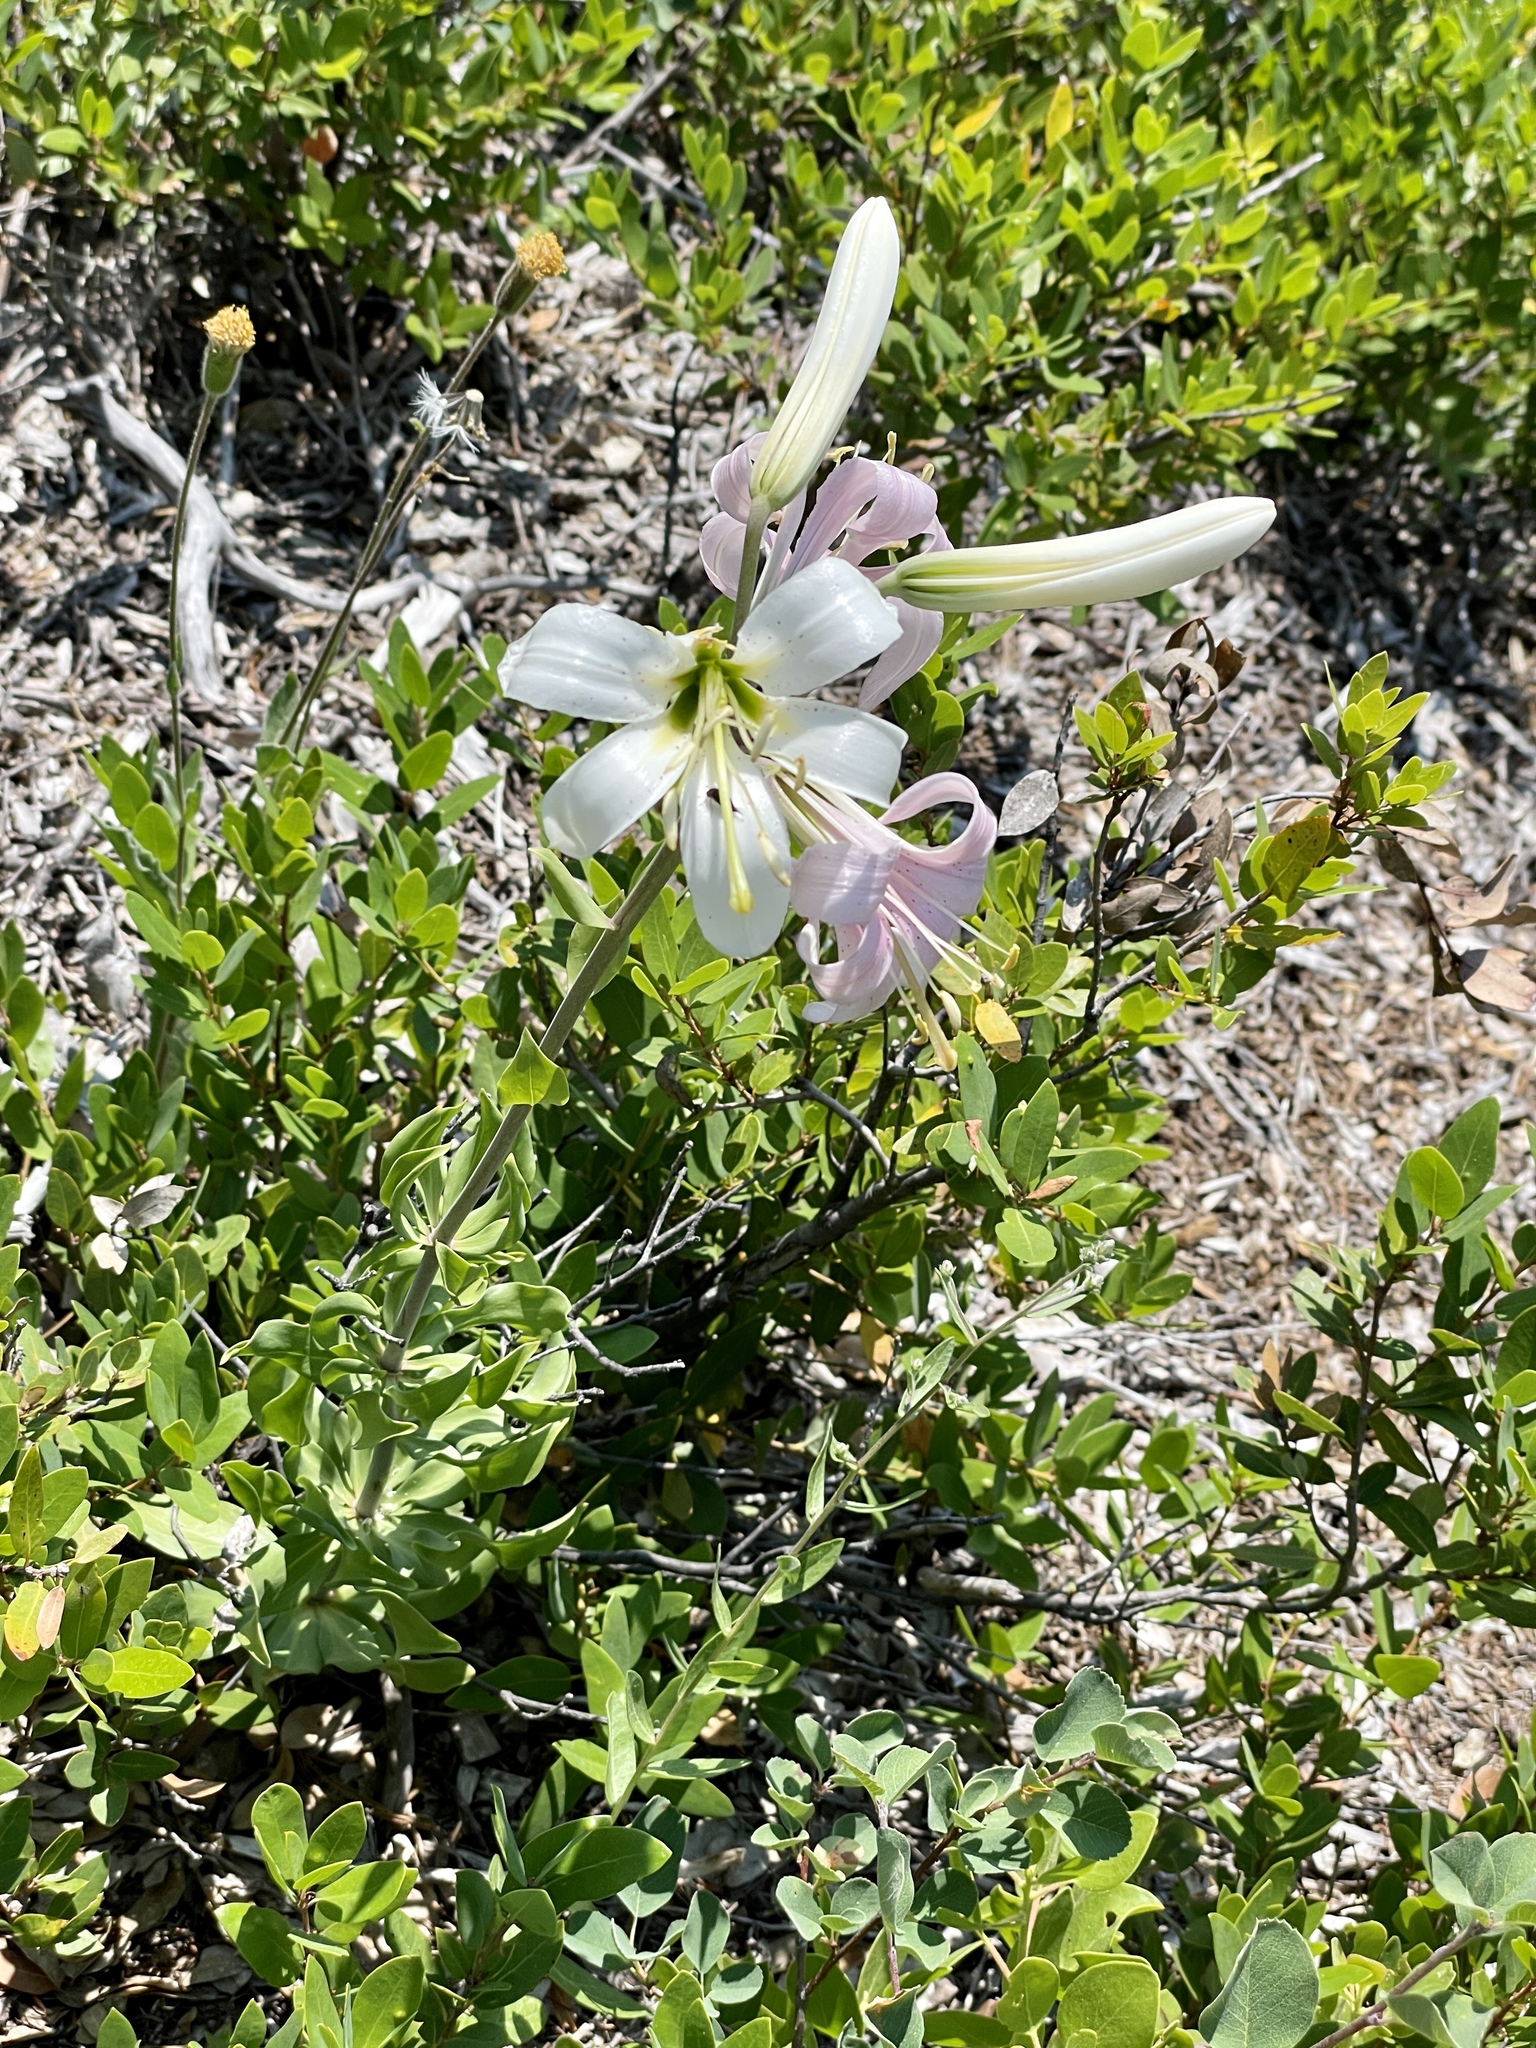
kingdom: Plantae
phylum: Tracheophyta
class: Liliopsida
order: Liliales
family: Liliaceae
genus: Lilium
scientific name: Lilium washingtonianum
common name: Washington lily
